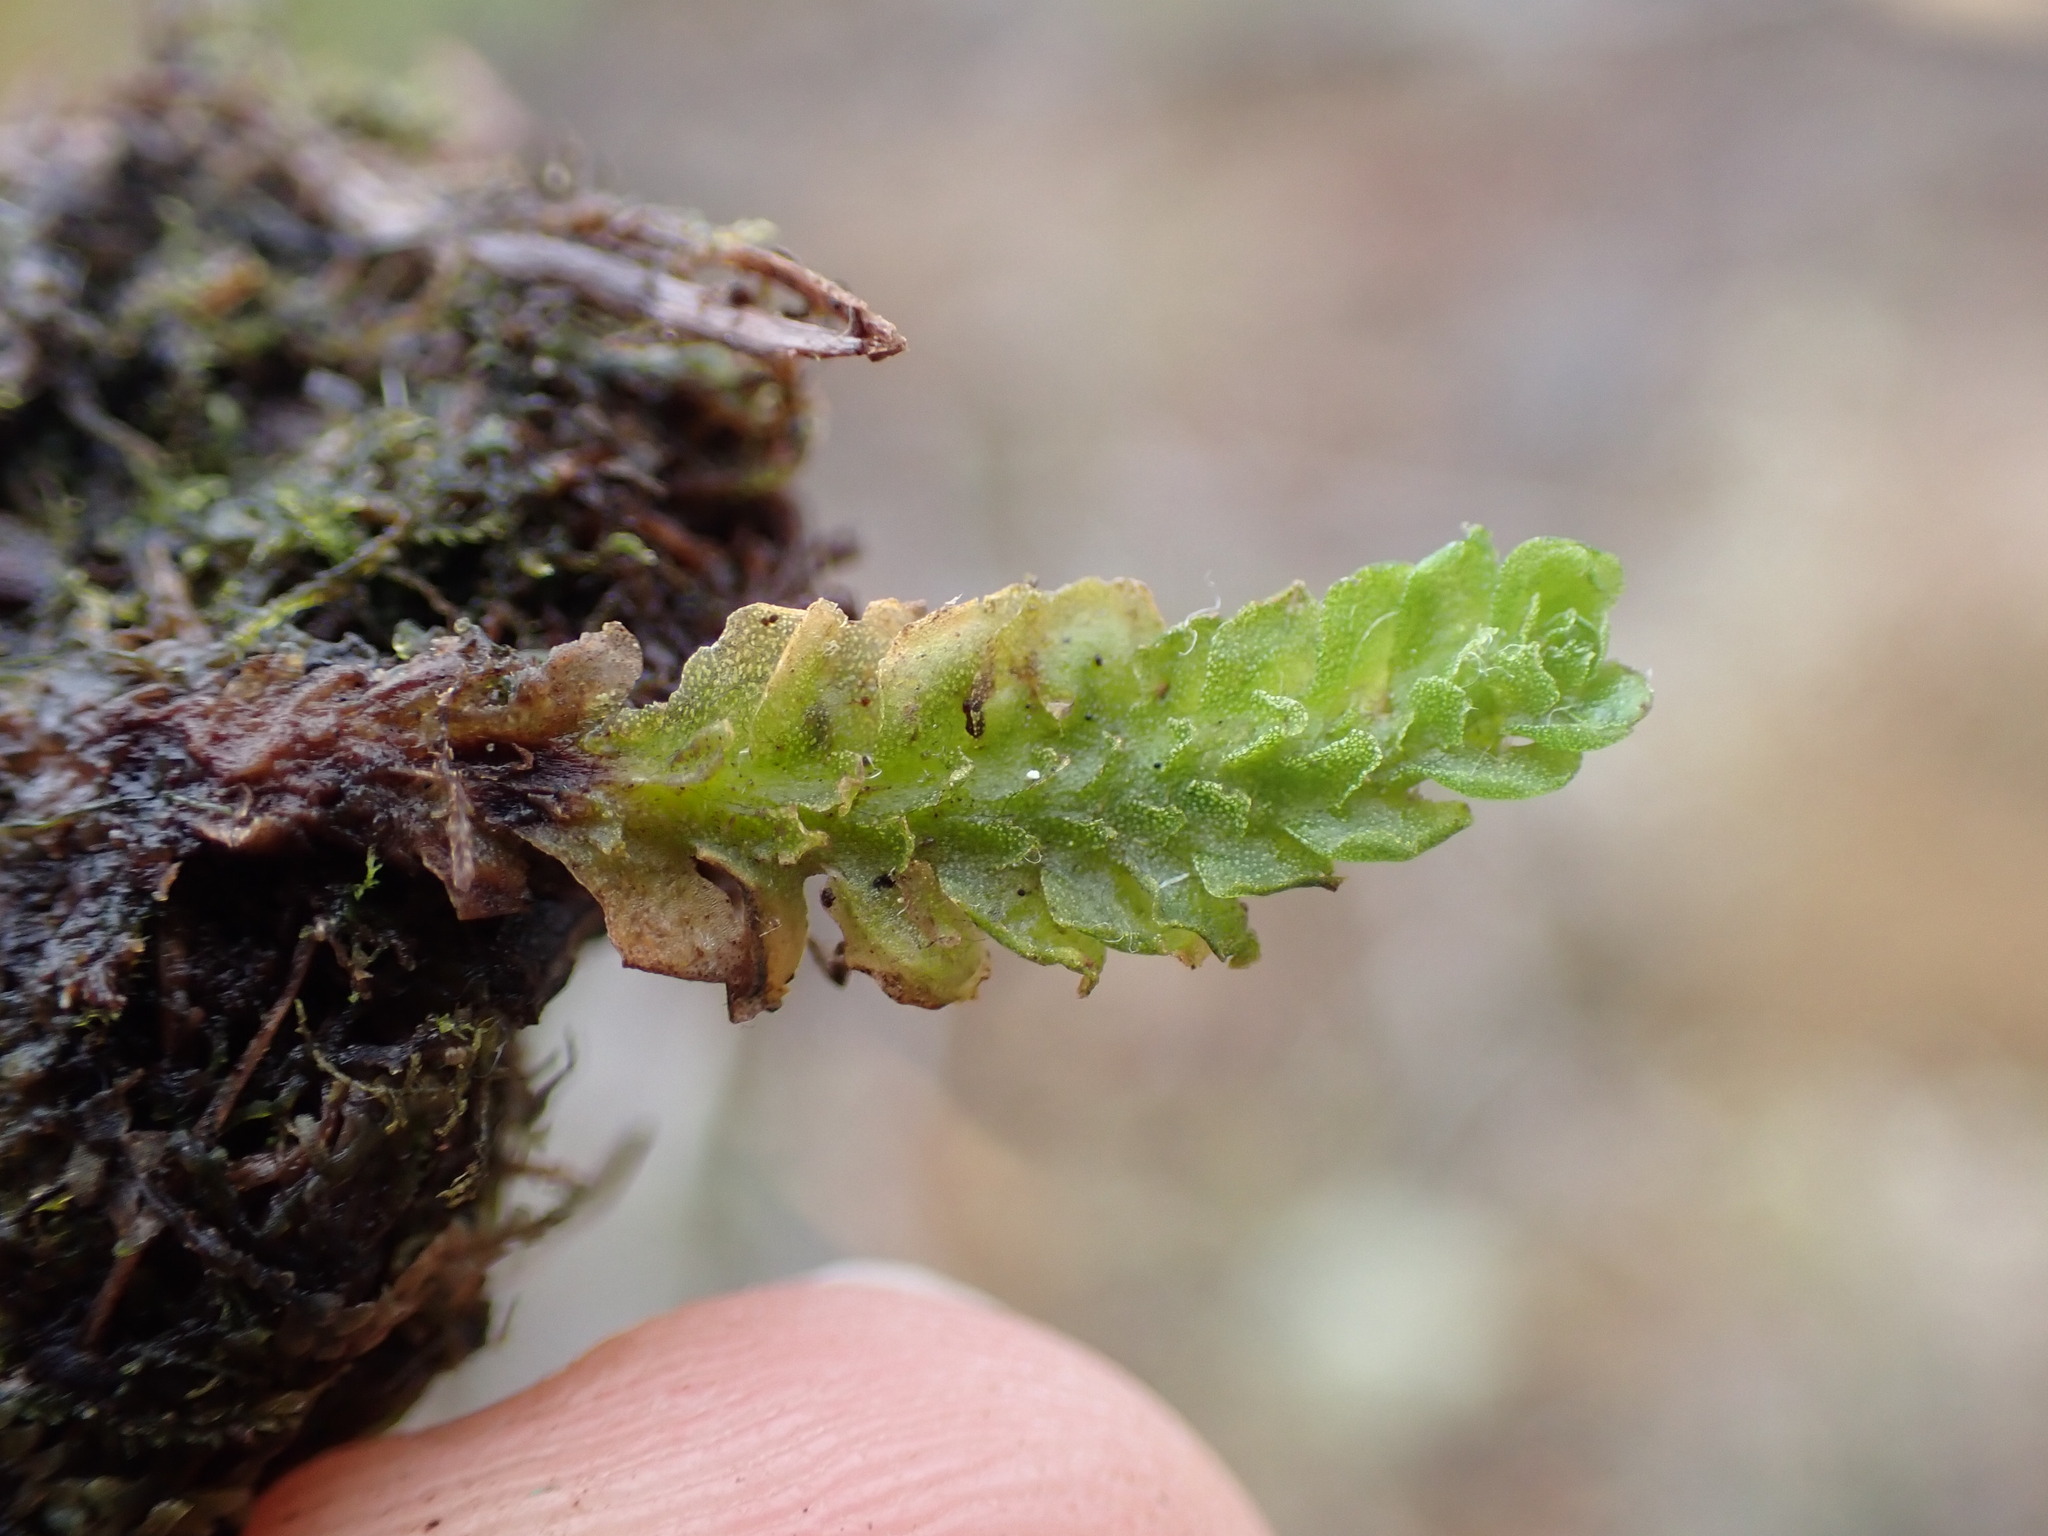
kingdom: Plantae
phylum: Marchantiophyta
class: Haplomitriopsida
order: Treubiales
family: Treubiaceae
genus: Apotreubia
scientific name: Apotreubia nana
